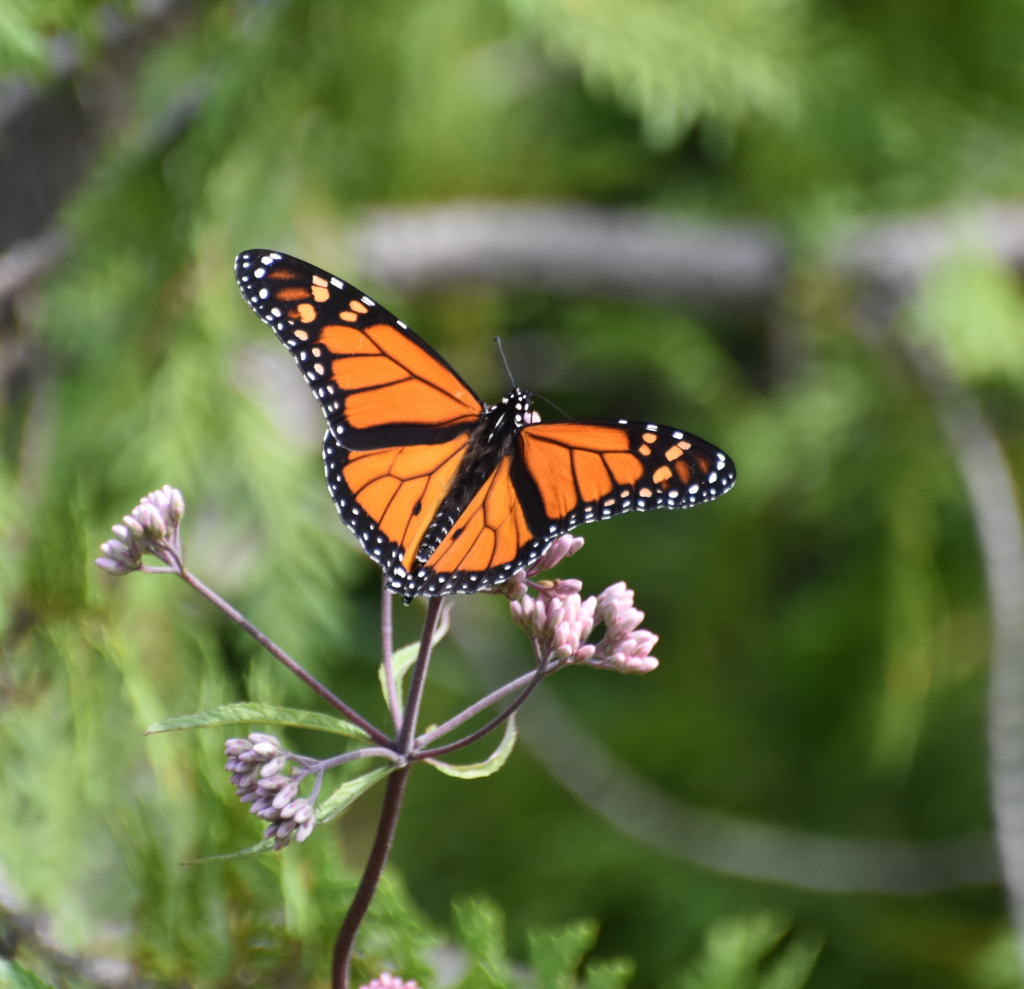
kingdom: Animalia
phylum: Arthropoda
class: Insecta
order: Lepidoptera
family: Nymphalidae
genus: Danaus
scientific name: Danaus plexippus
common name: Monarch
